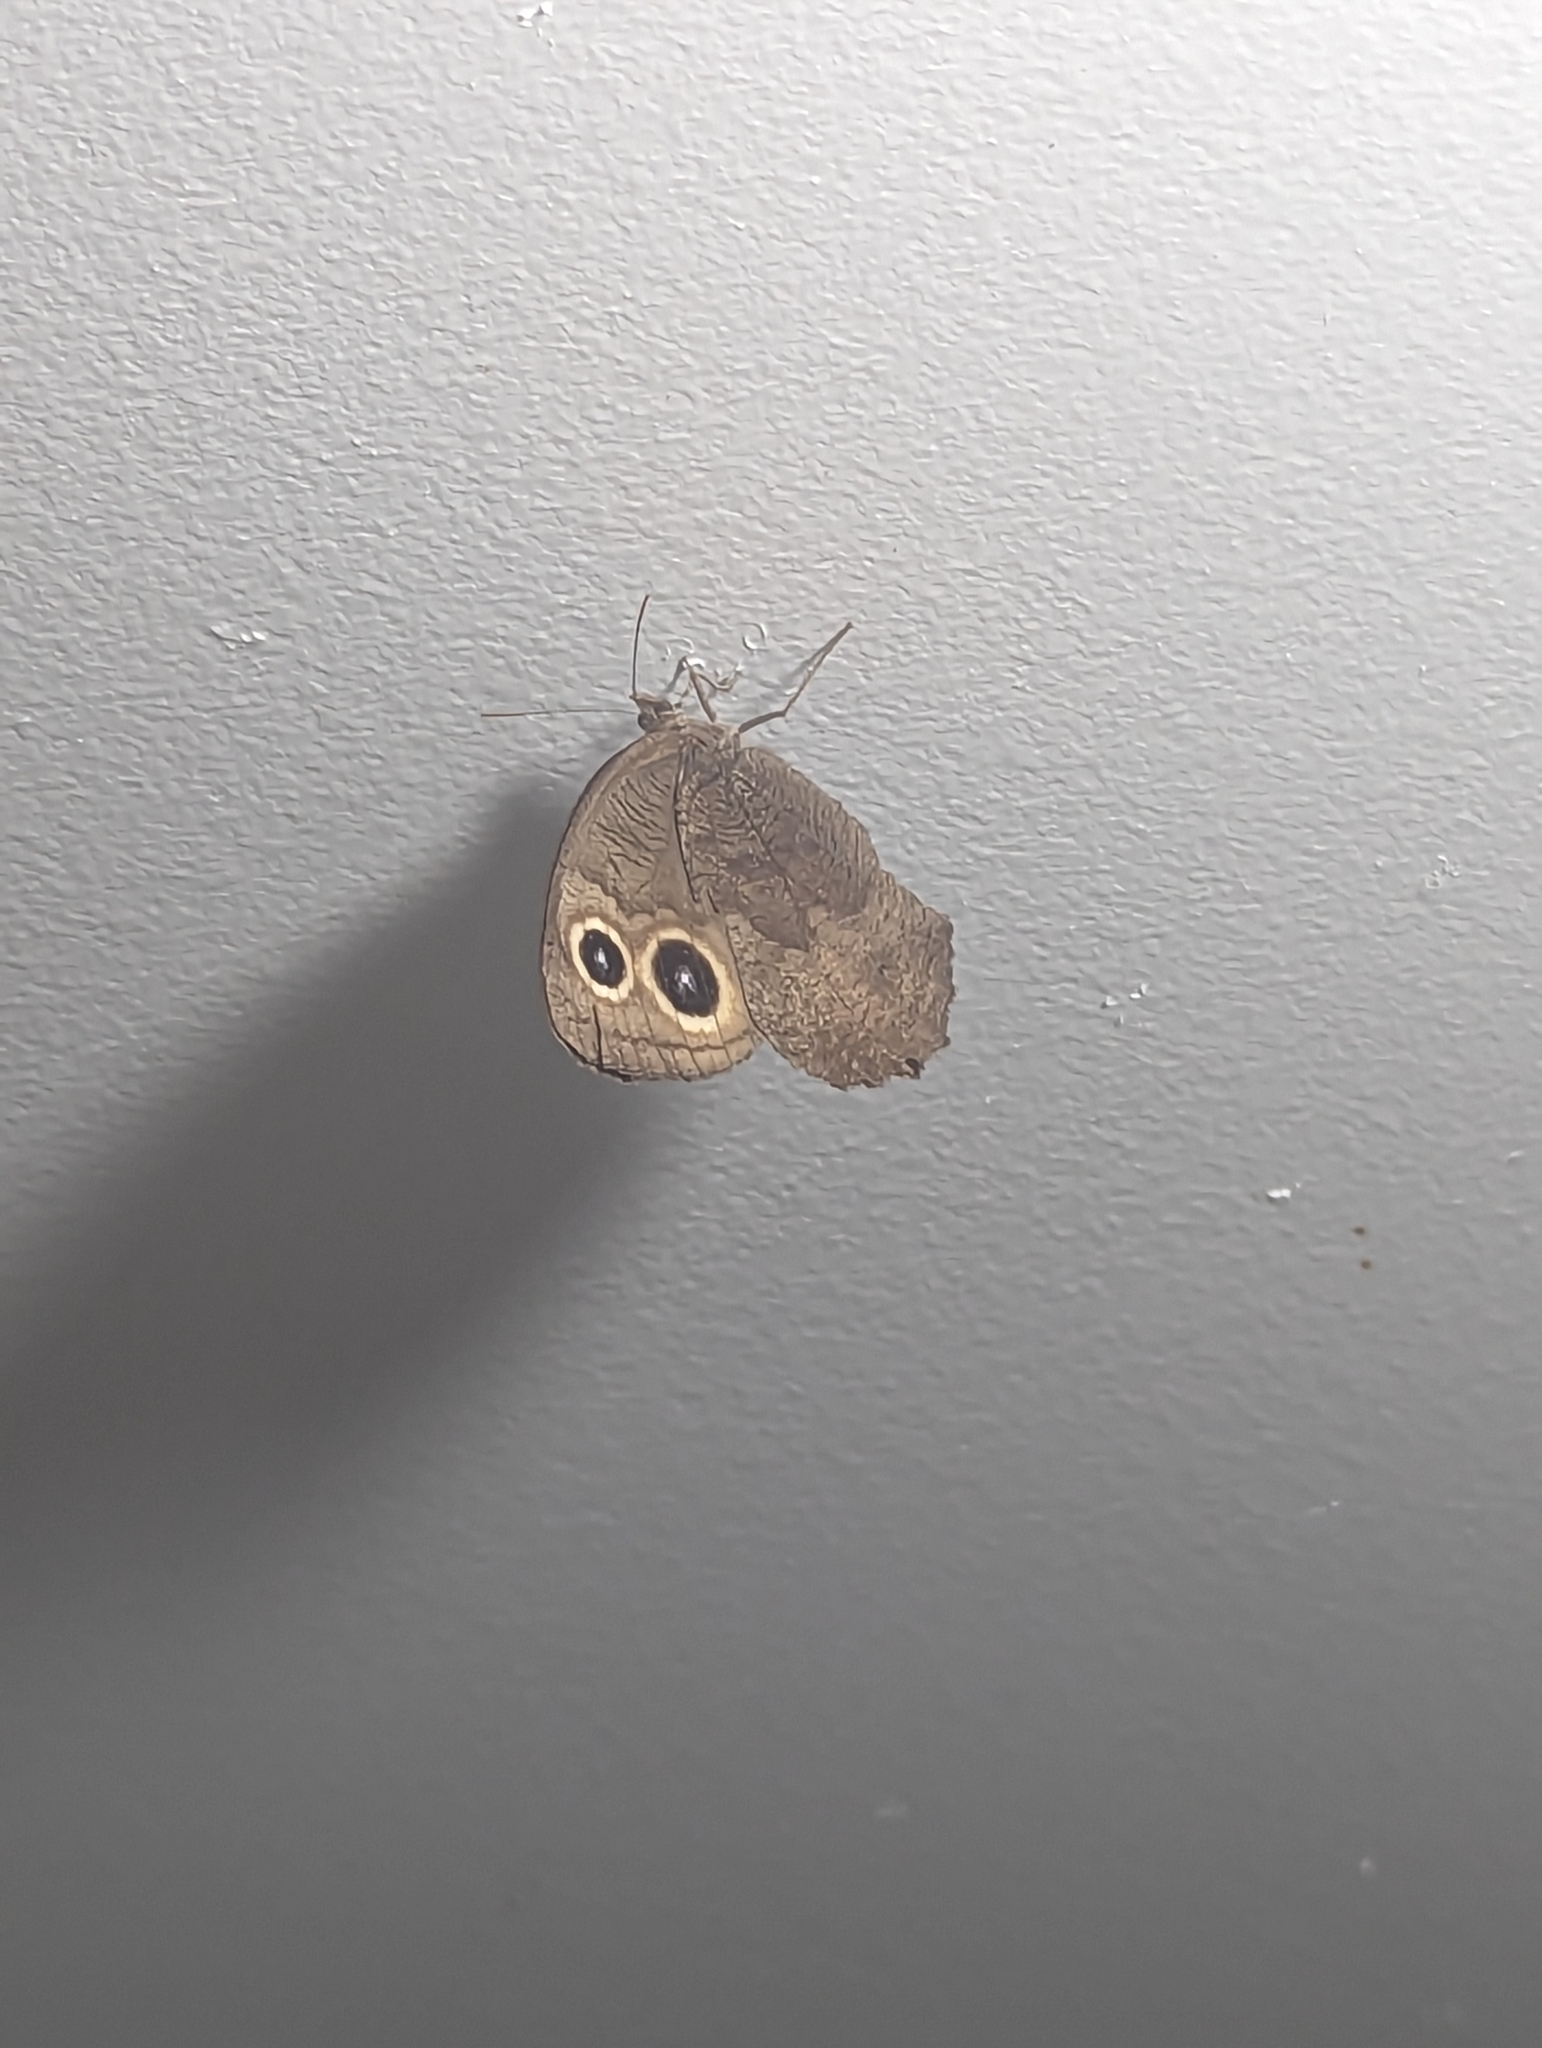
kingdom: Animalia
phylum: Arthropoda
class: Insecta
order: Lepidoptera
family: Nymphalidae
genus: Cercyonis
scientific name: Cercyonis pegala
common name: Common wood-nymph
